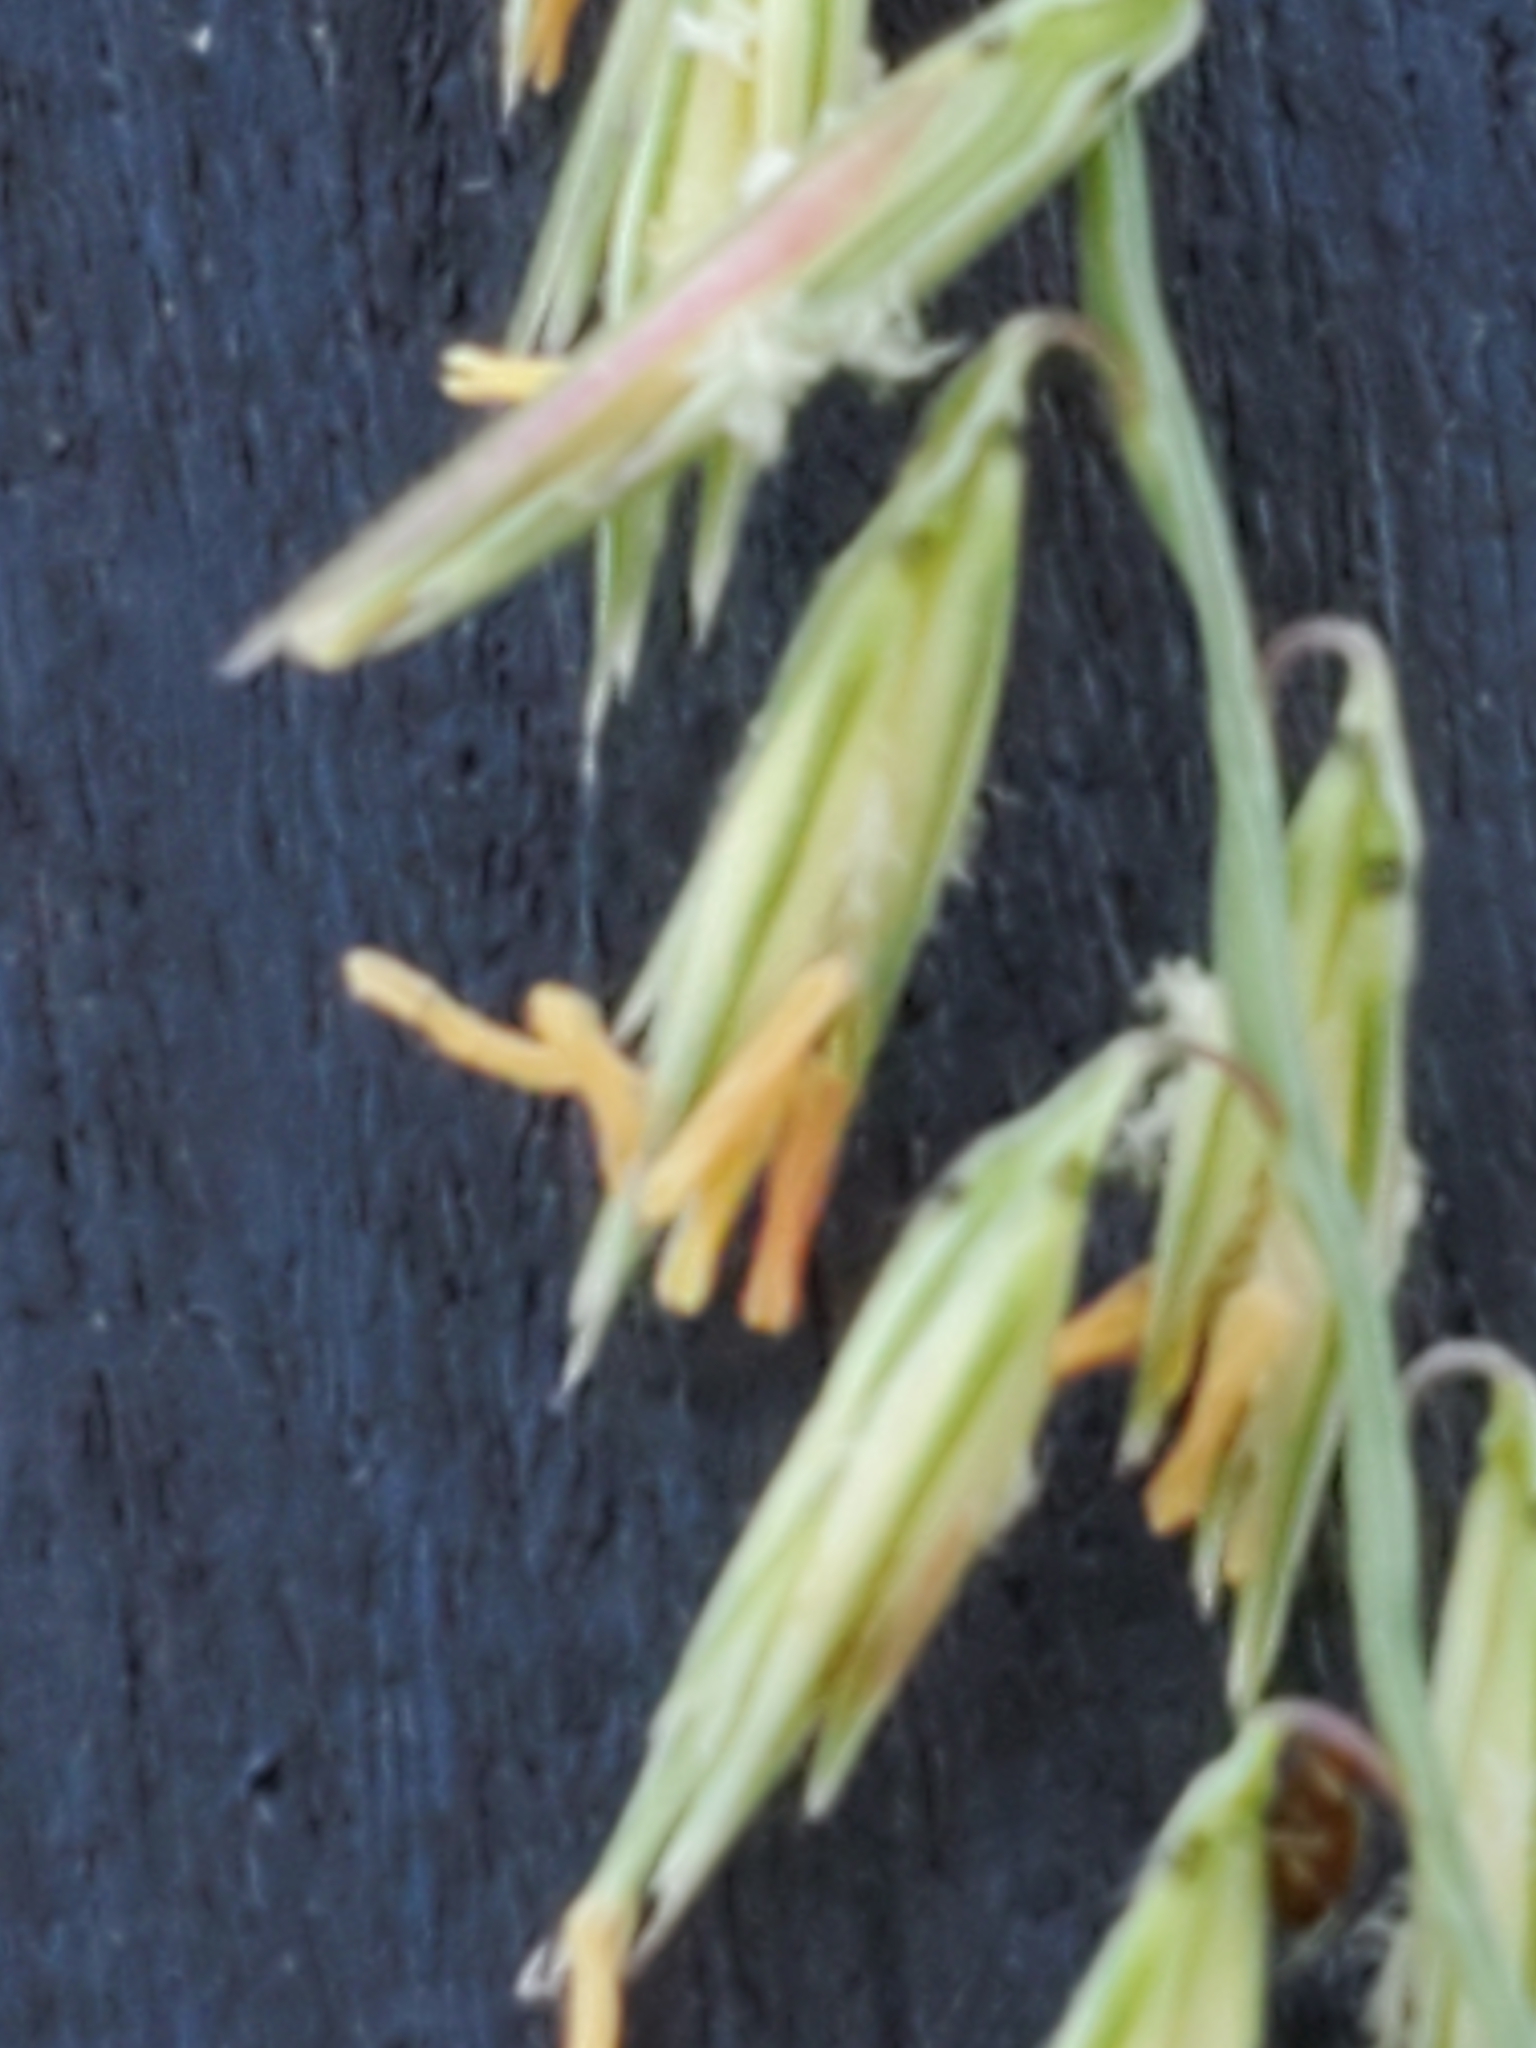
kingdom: Plantae
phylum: Tracheophyta
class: Liliopsida
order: Poales
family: Poaceae
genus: Bouteloua
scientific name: Bouteloua curtipendula
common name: Side-oats grama
